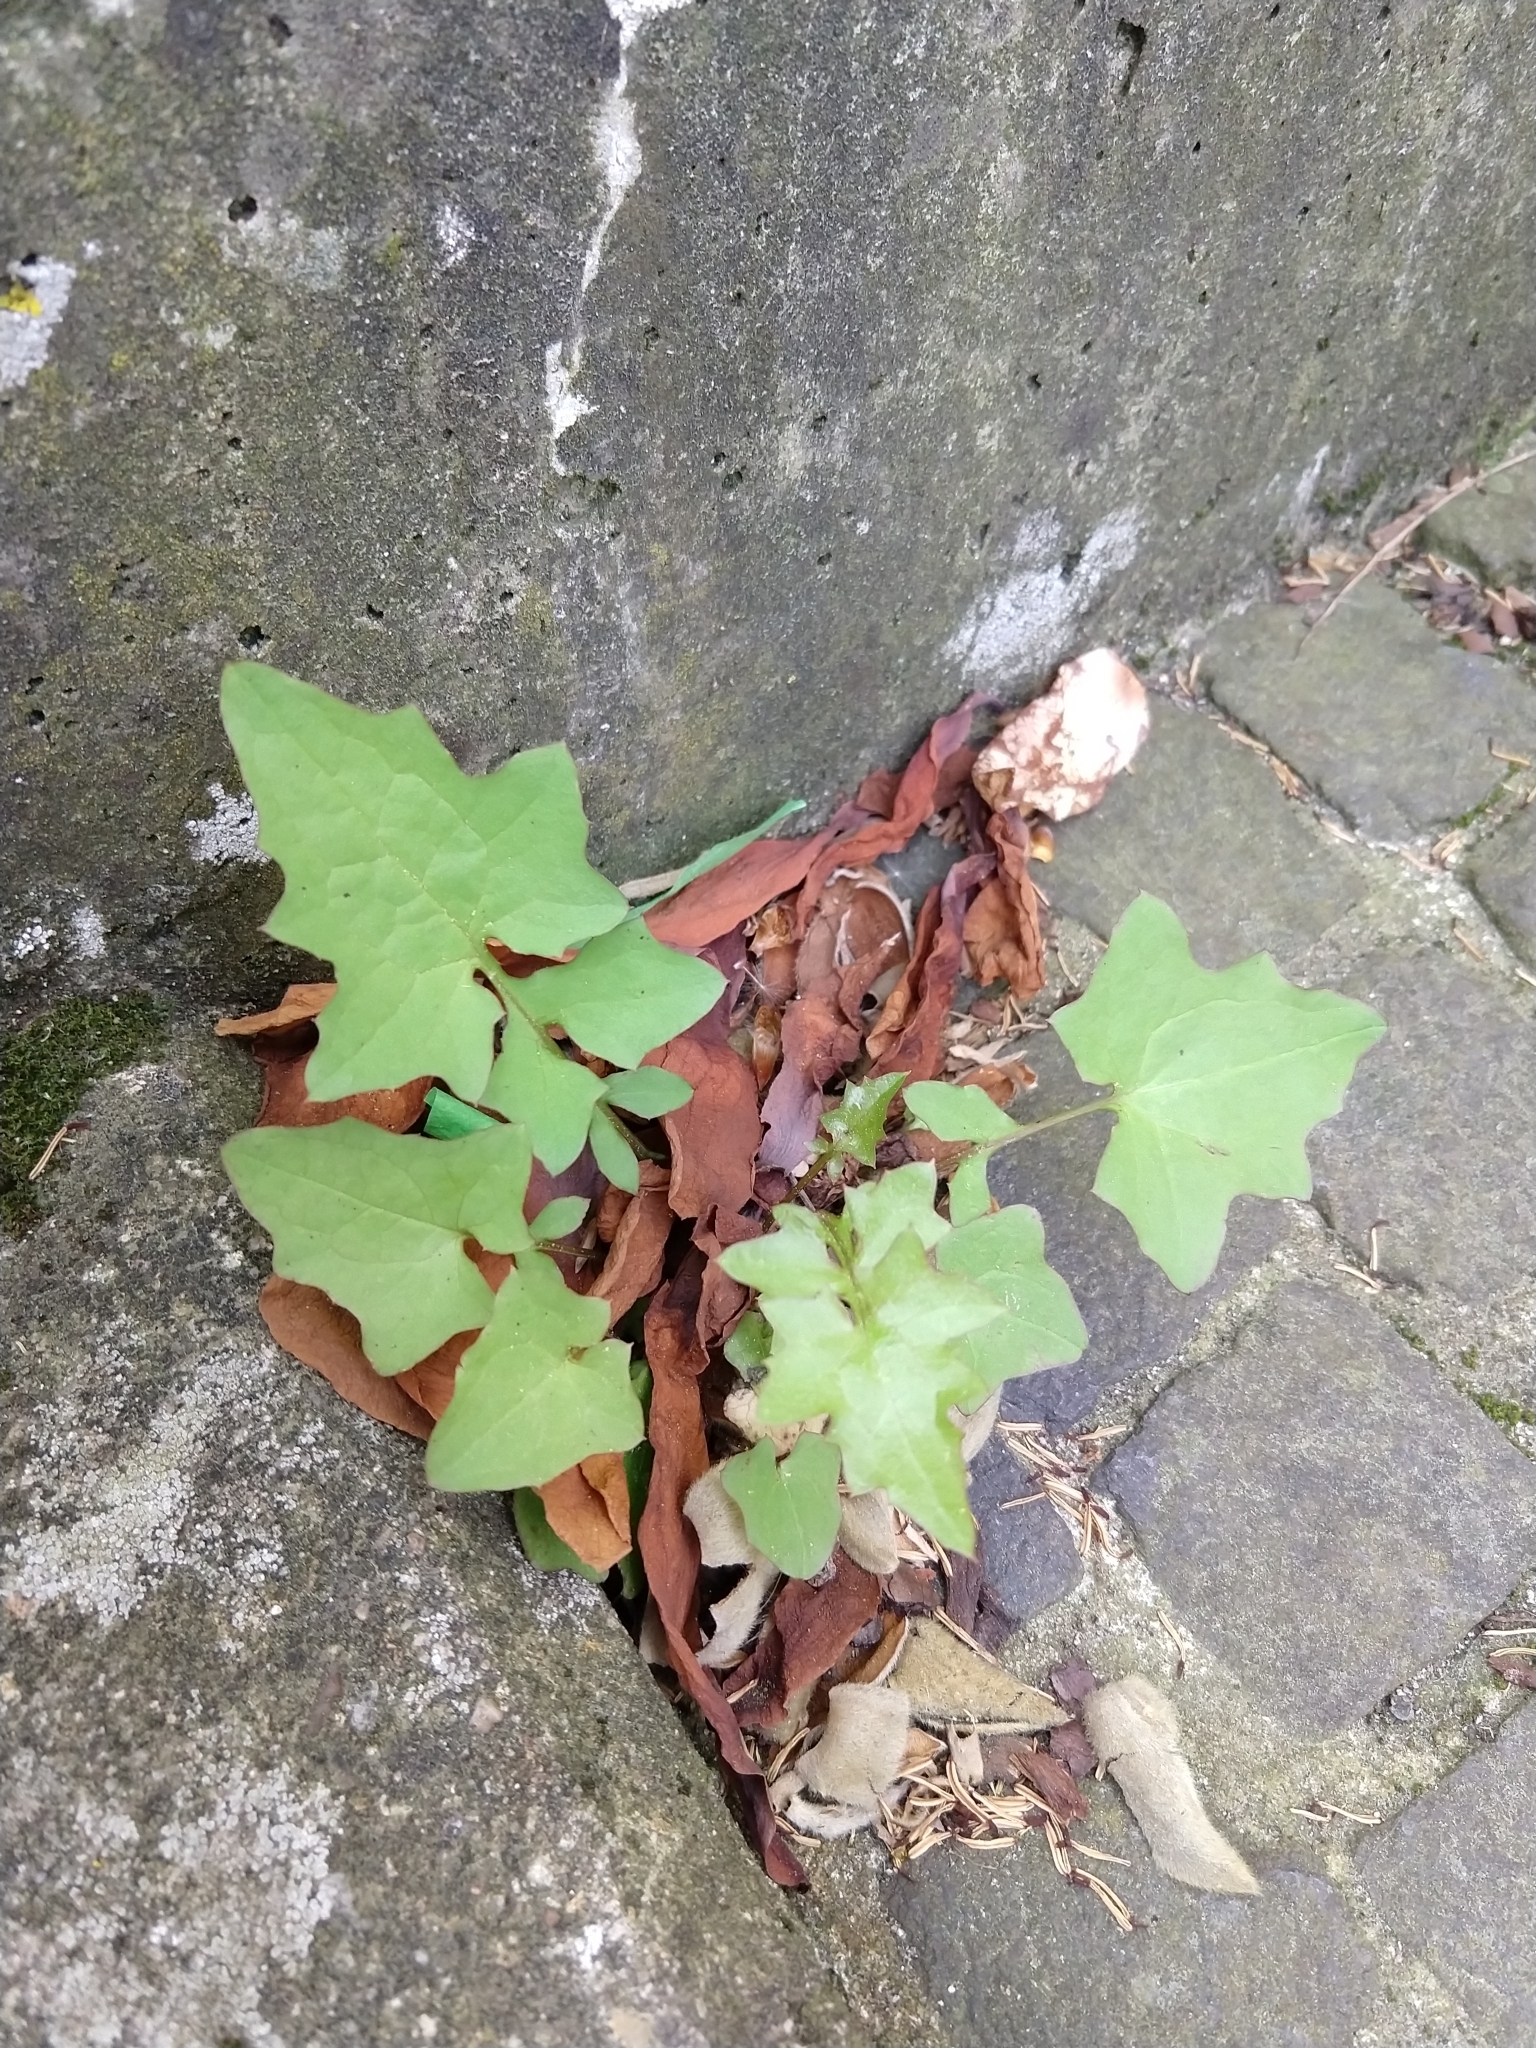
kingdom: Plantae
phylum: Tracheophyta
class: Magnoliopsida
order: Asterales
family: Asteraceae
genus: Mycelis
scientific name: Mycelis muralis
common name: Wall lettuce
